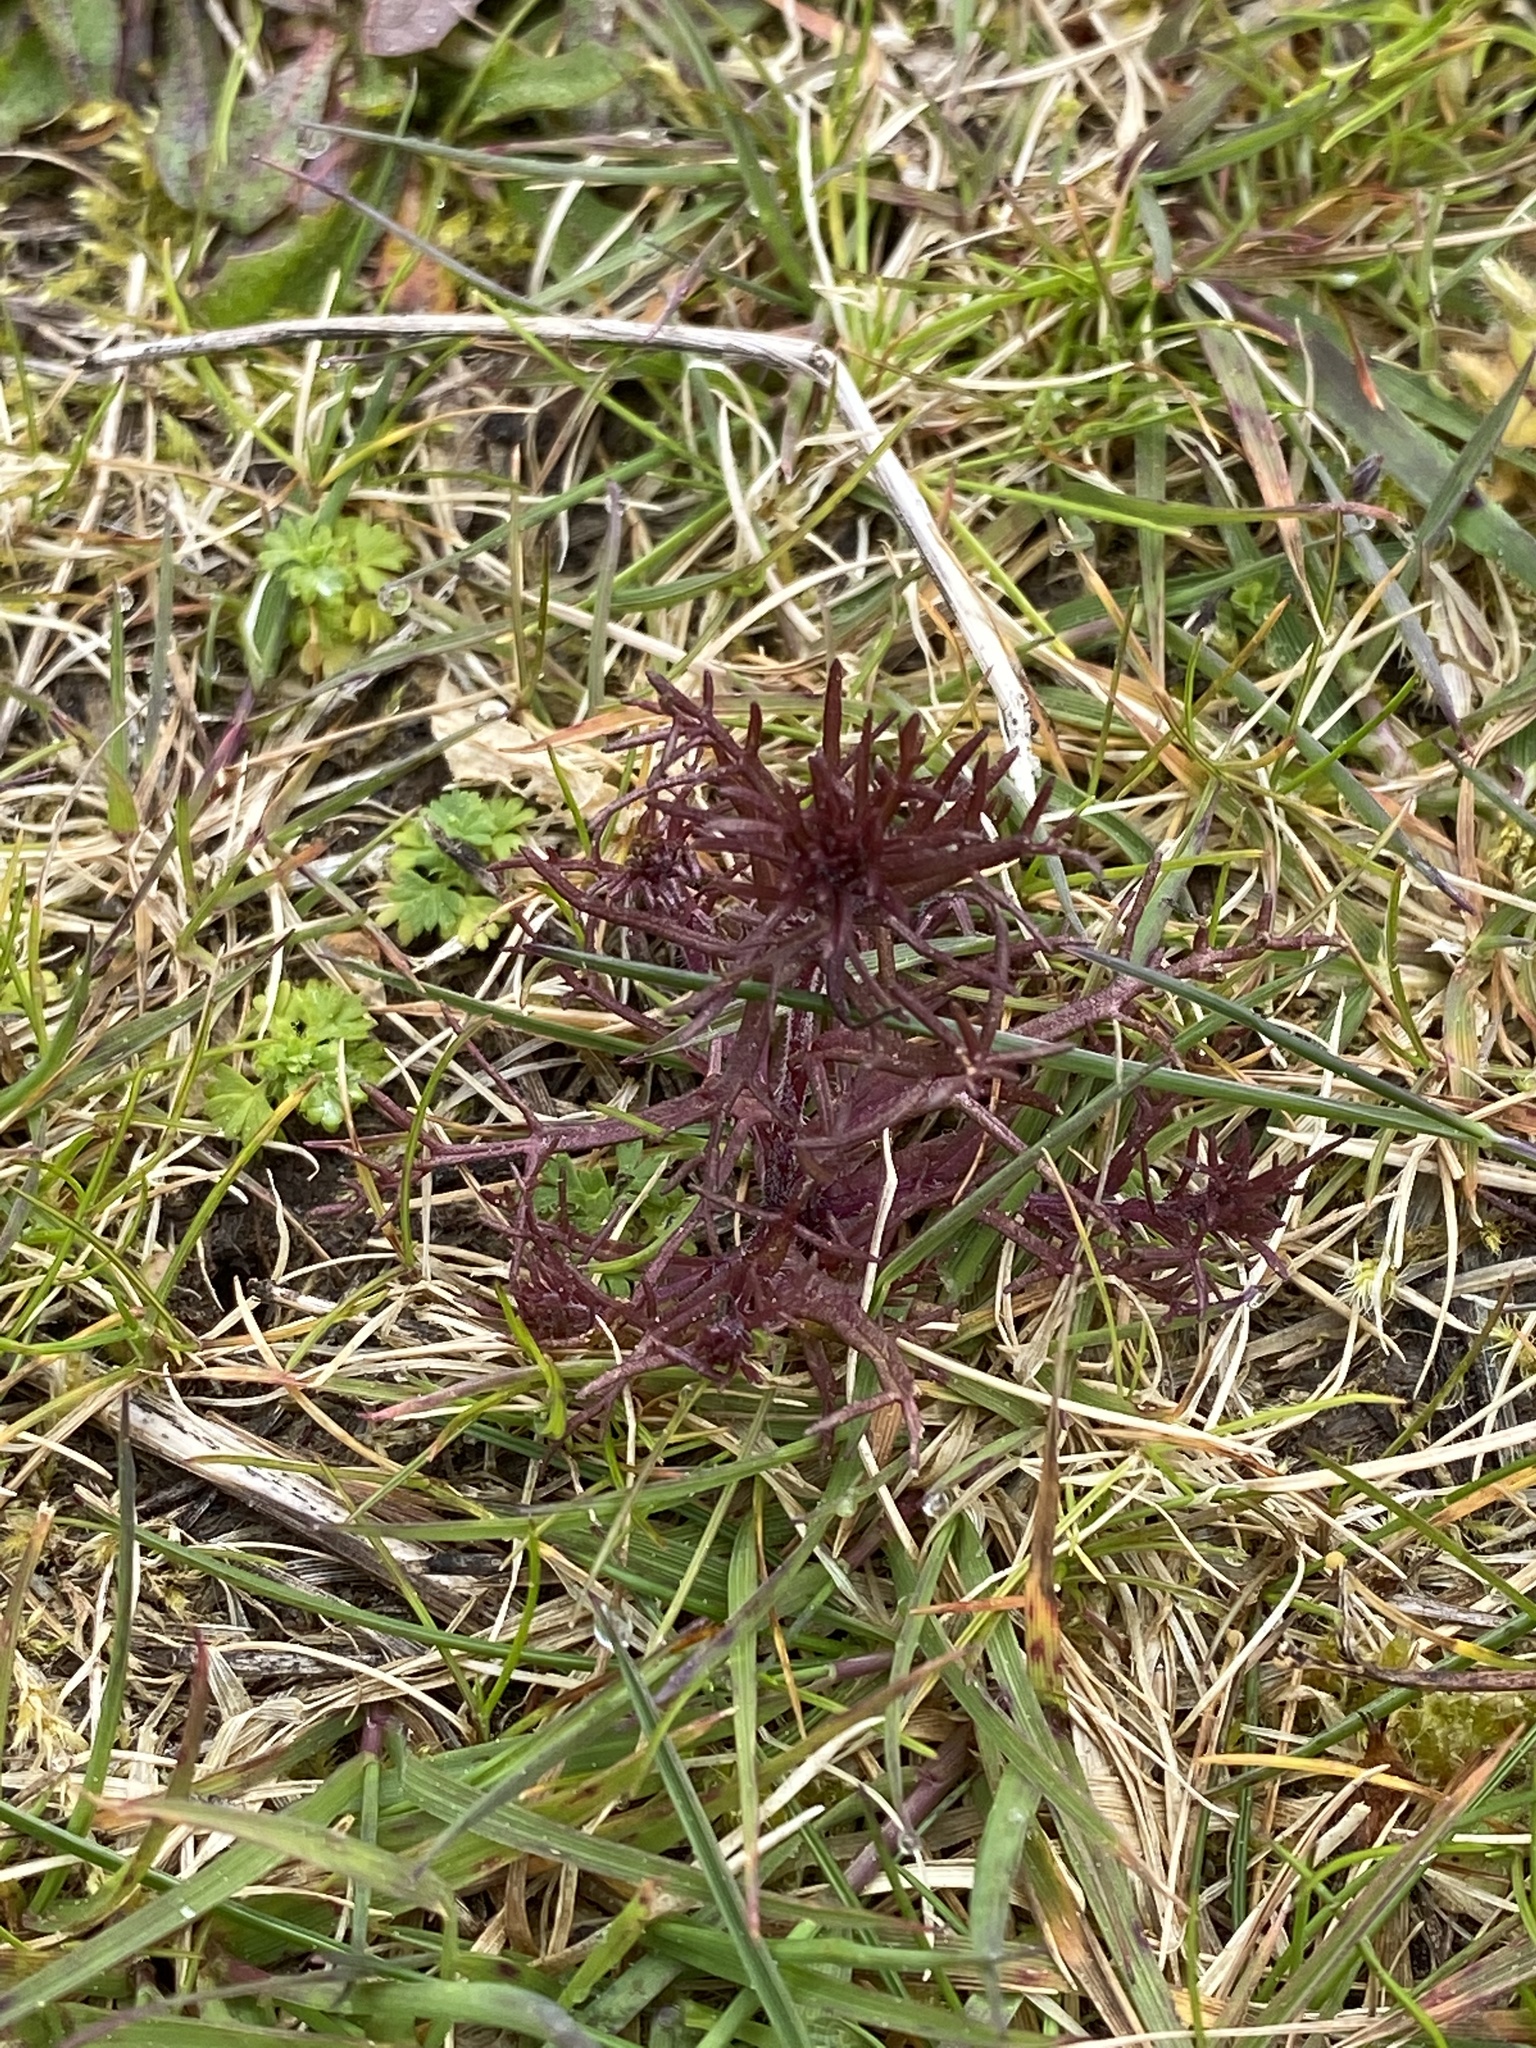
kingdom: Plantae
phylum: Tracheophyta
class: Magnoliopsida
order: Lamiales
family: Orobanchaceae
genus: Triphysaria
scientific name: Triphysaria pusilla
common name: Dwarf false owl-clover
